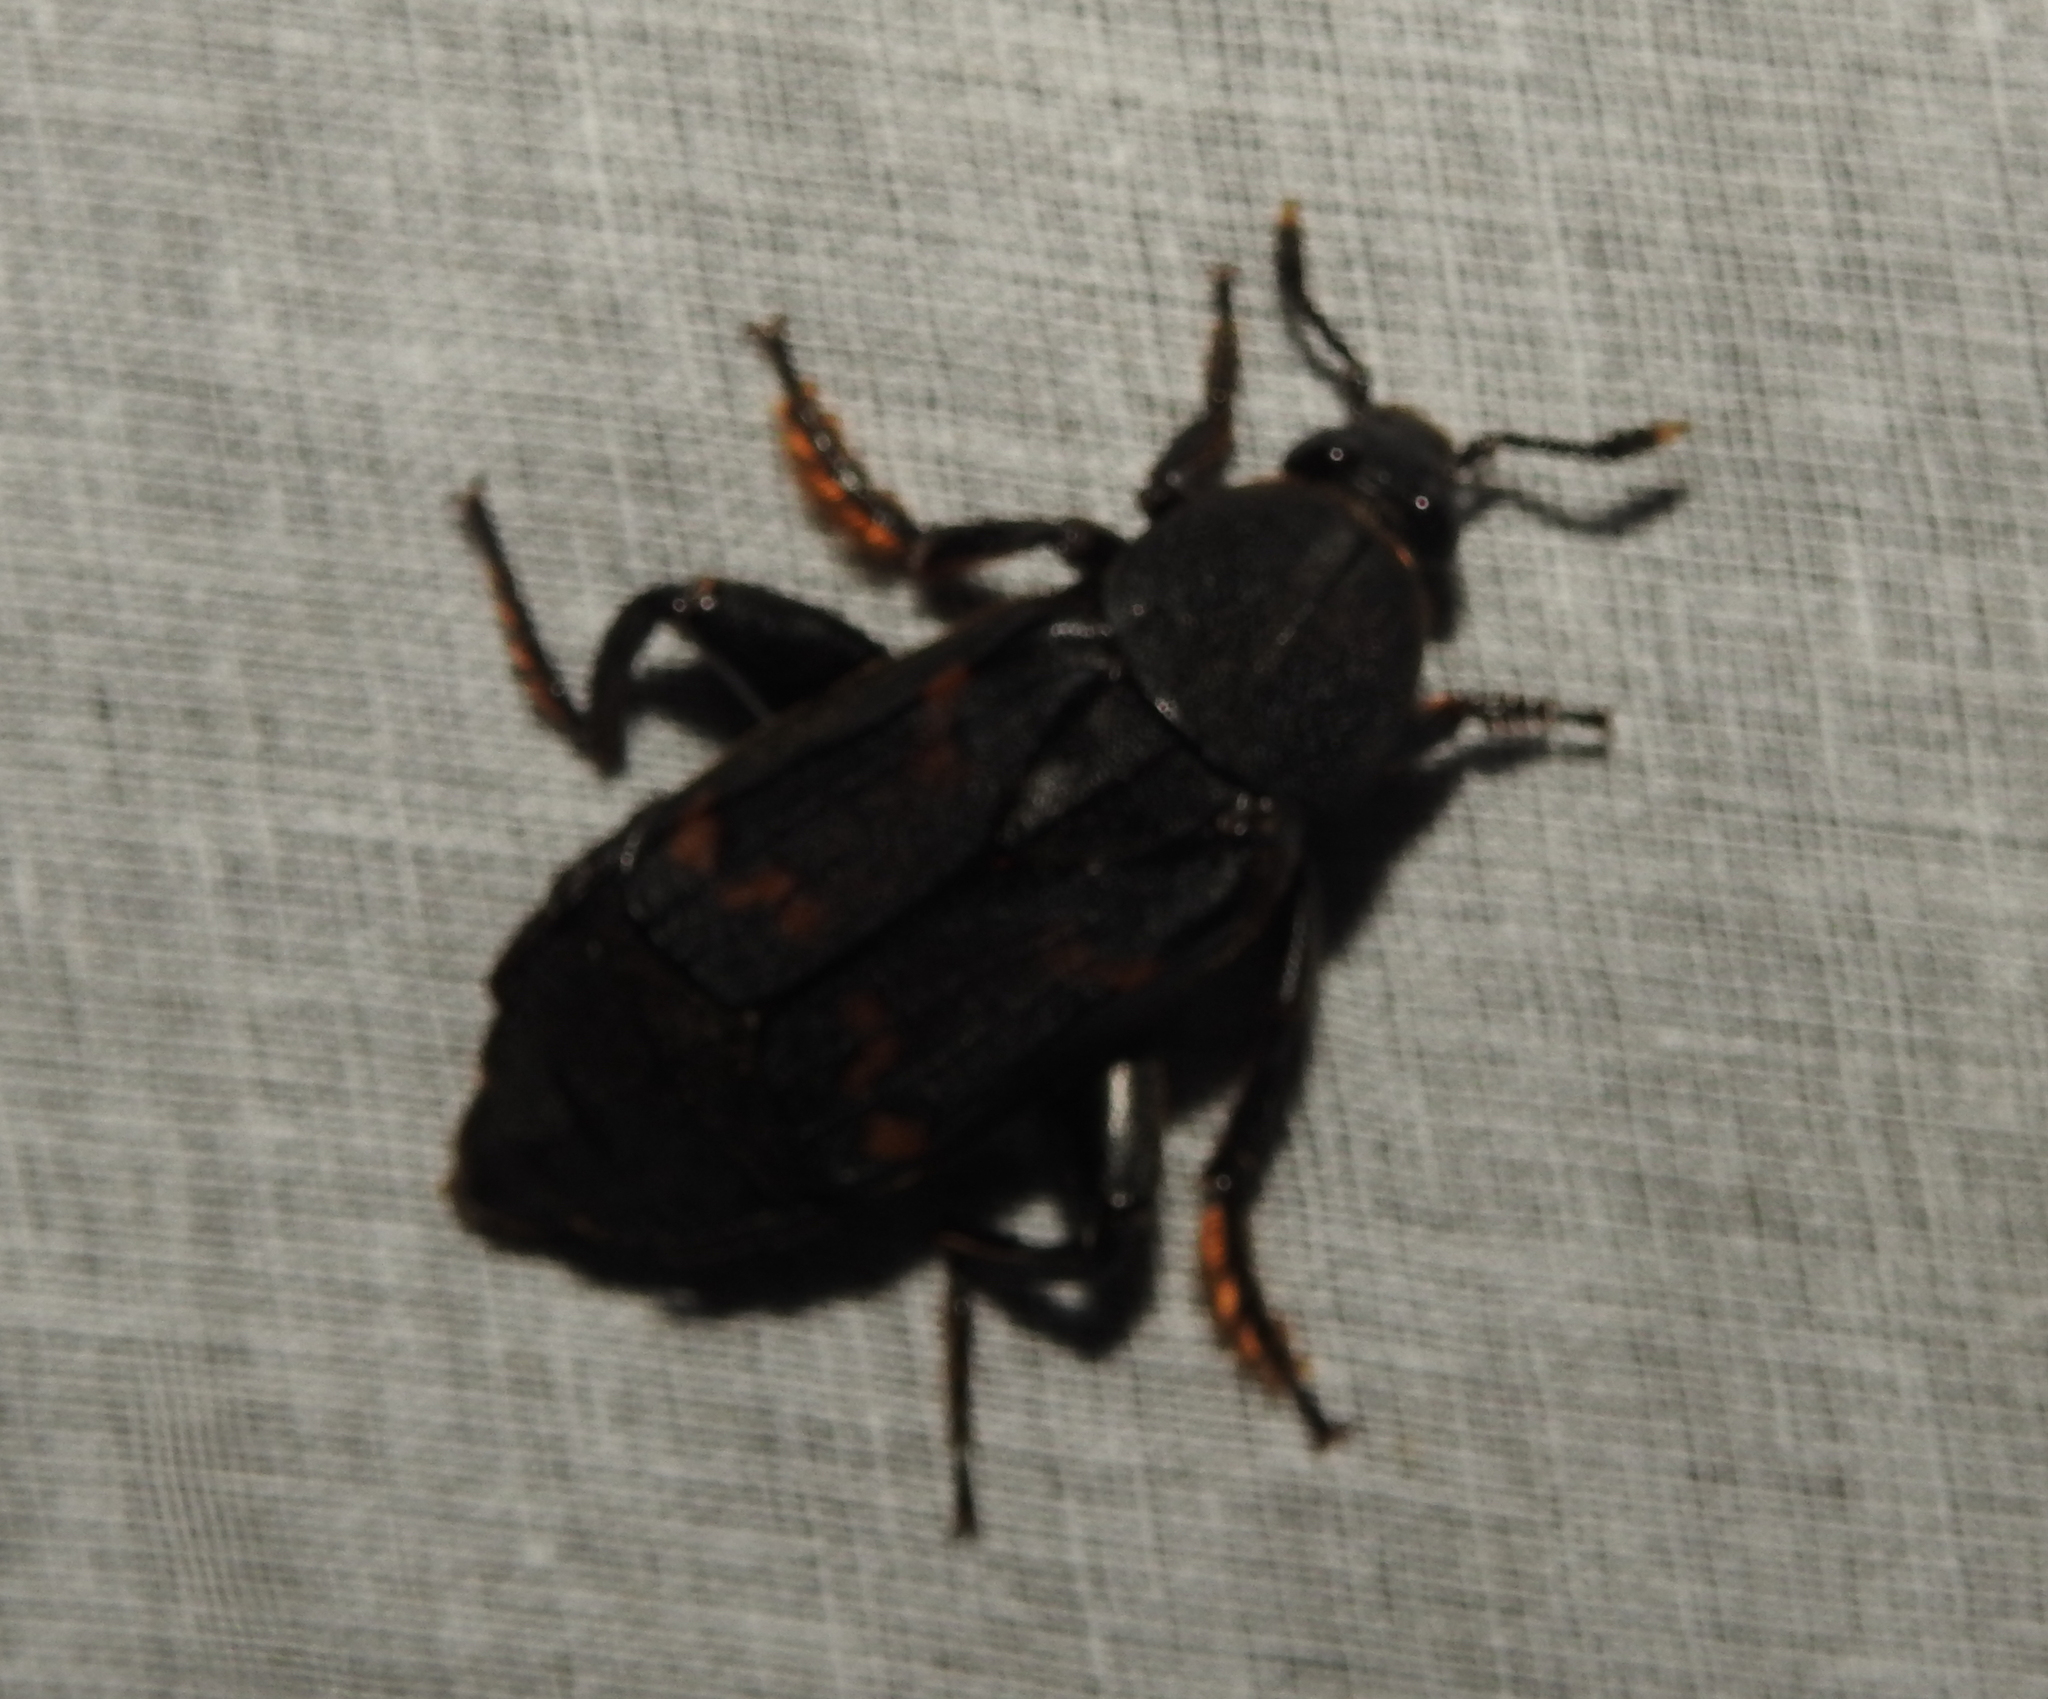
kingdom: Animalia
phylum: Arthropoda
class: Insecta
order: Coleoptera
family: Staphylinidae
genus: Diamesus
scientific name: Diamesus osculans
